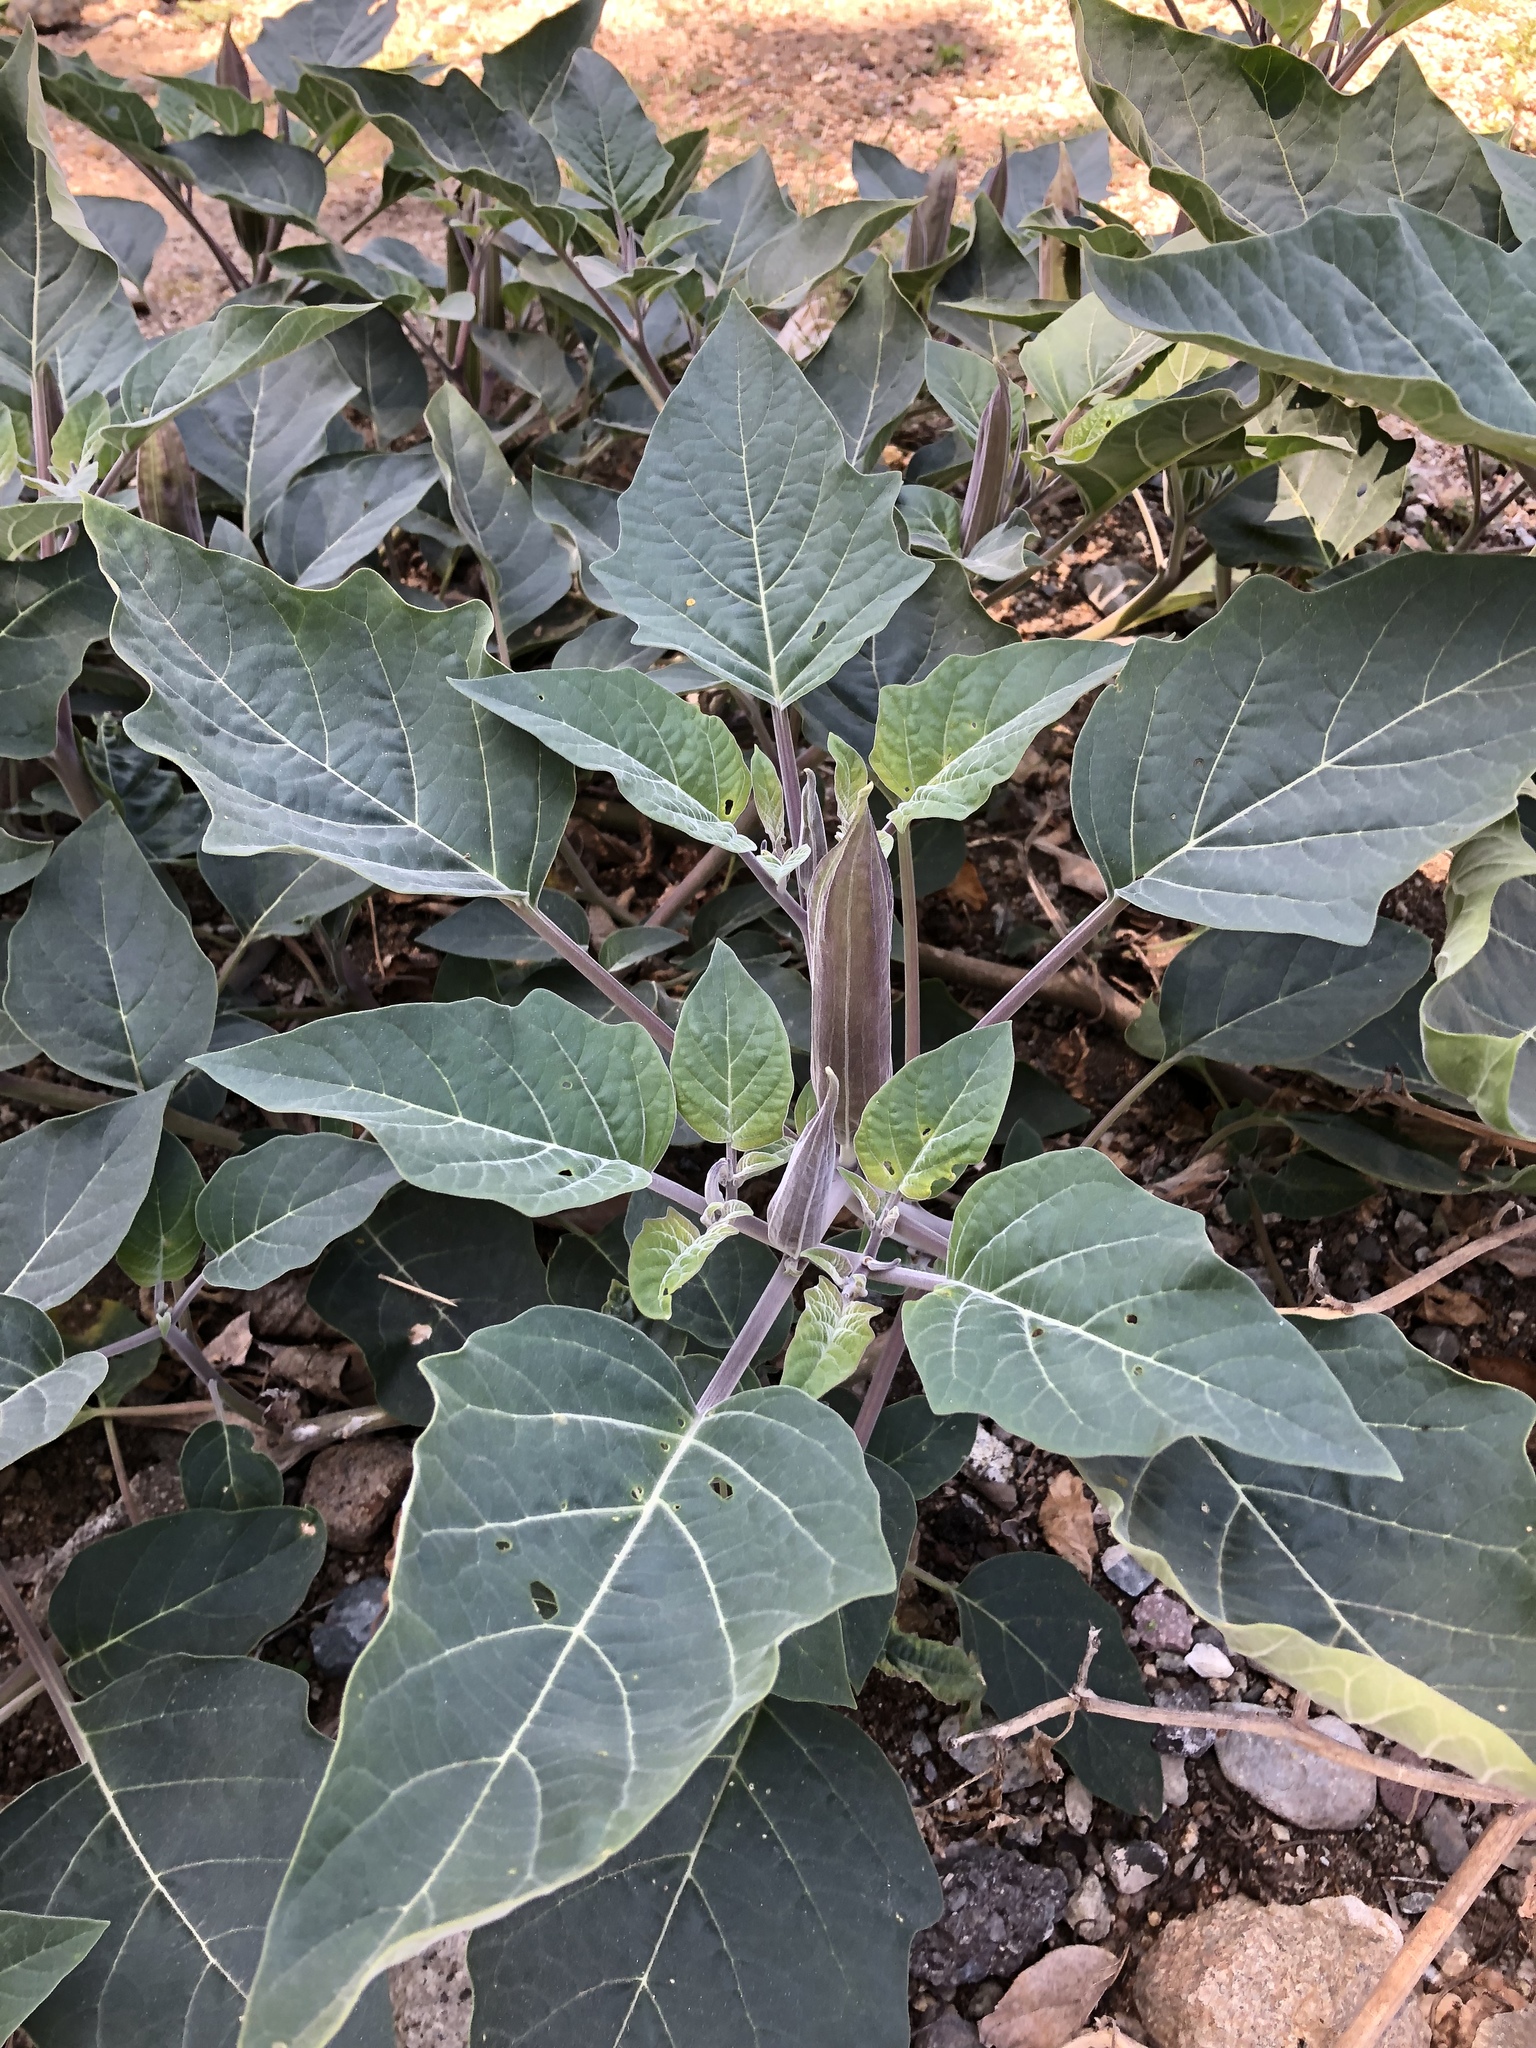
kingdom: Plantae
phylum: Tracheophyta
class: Magnoliopsida
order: Solanales
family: Solanaceae
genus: Datura
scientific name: Datura wrightii
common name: Sacred thorn-apple
